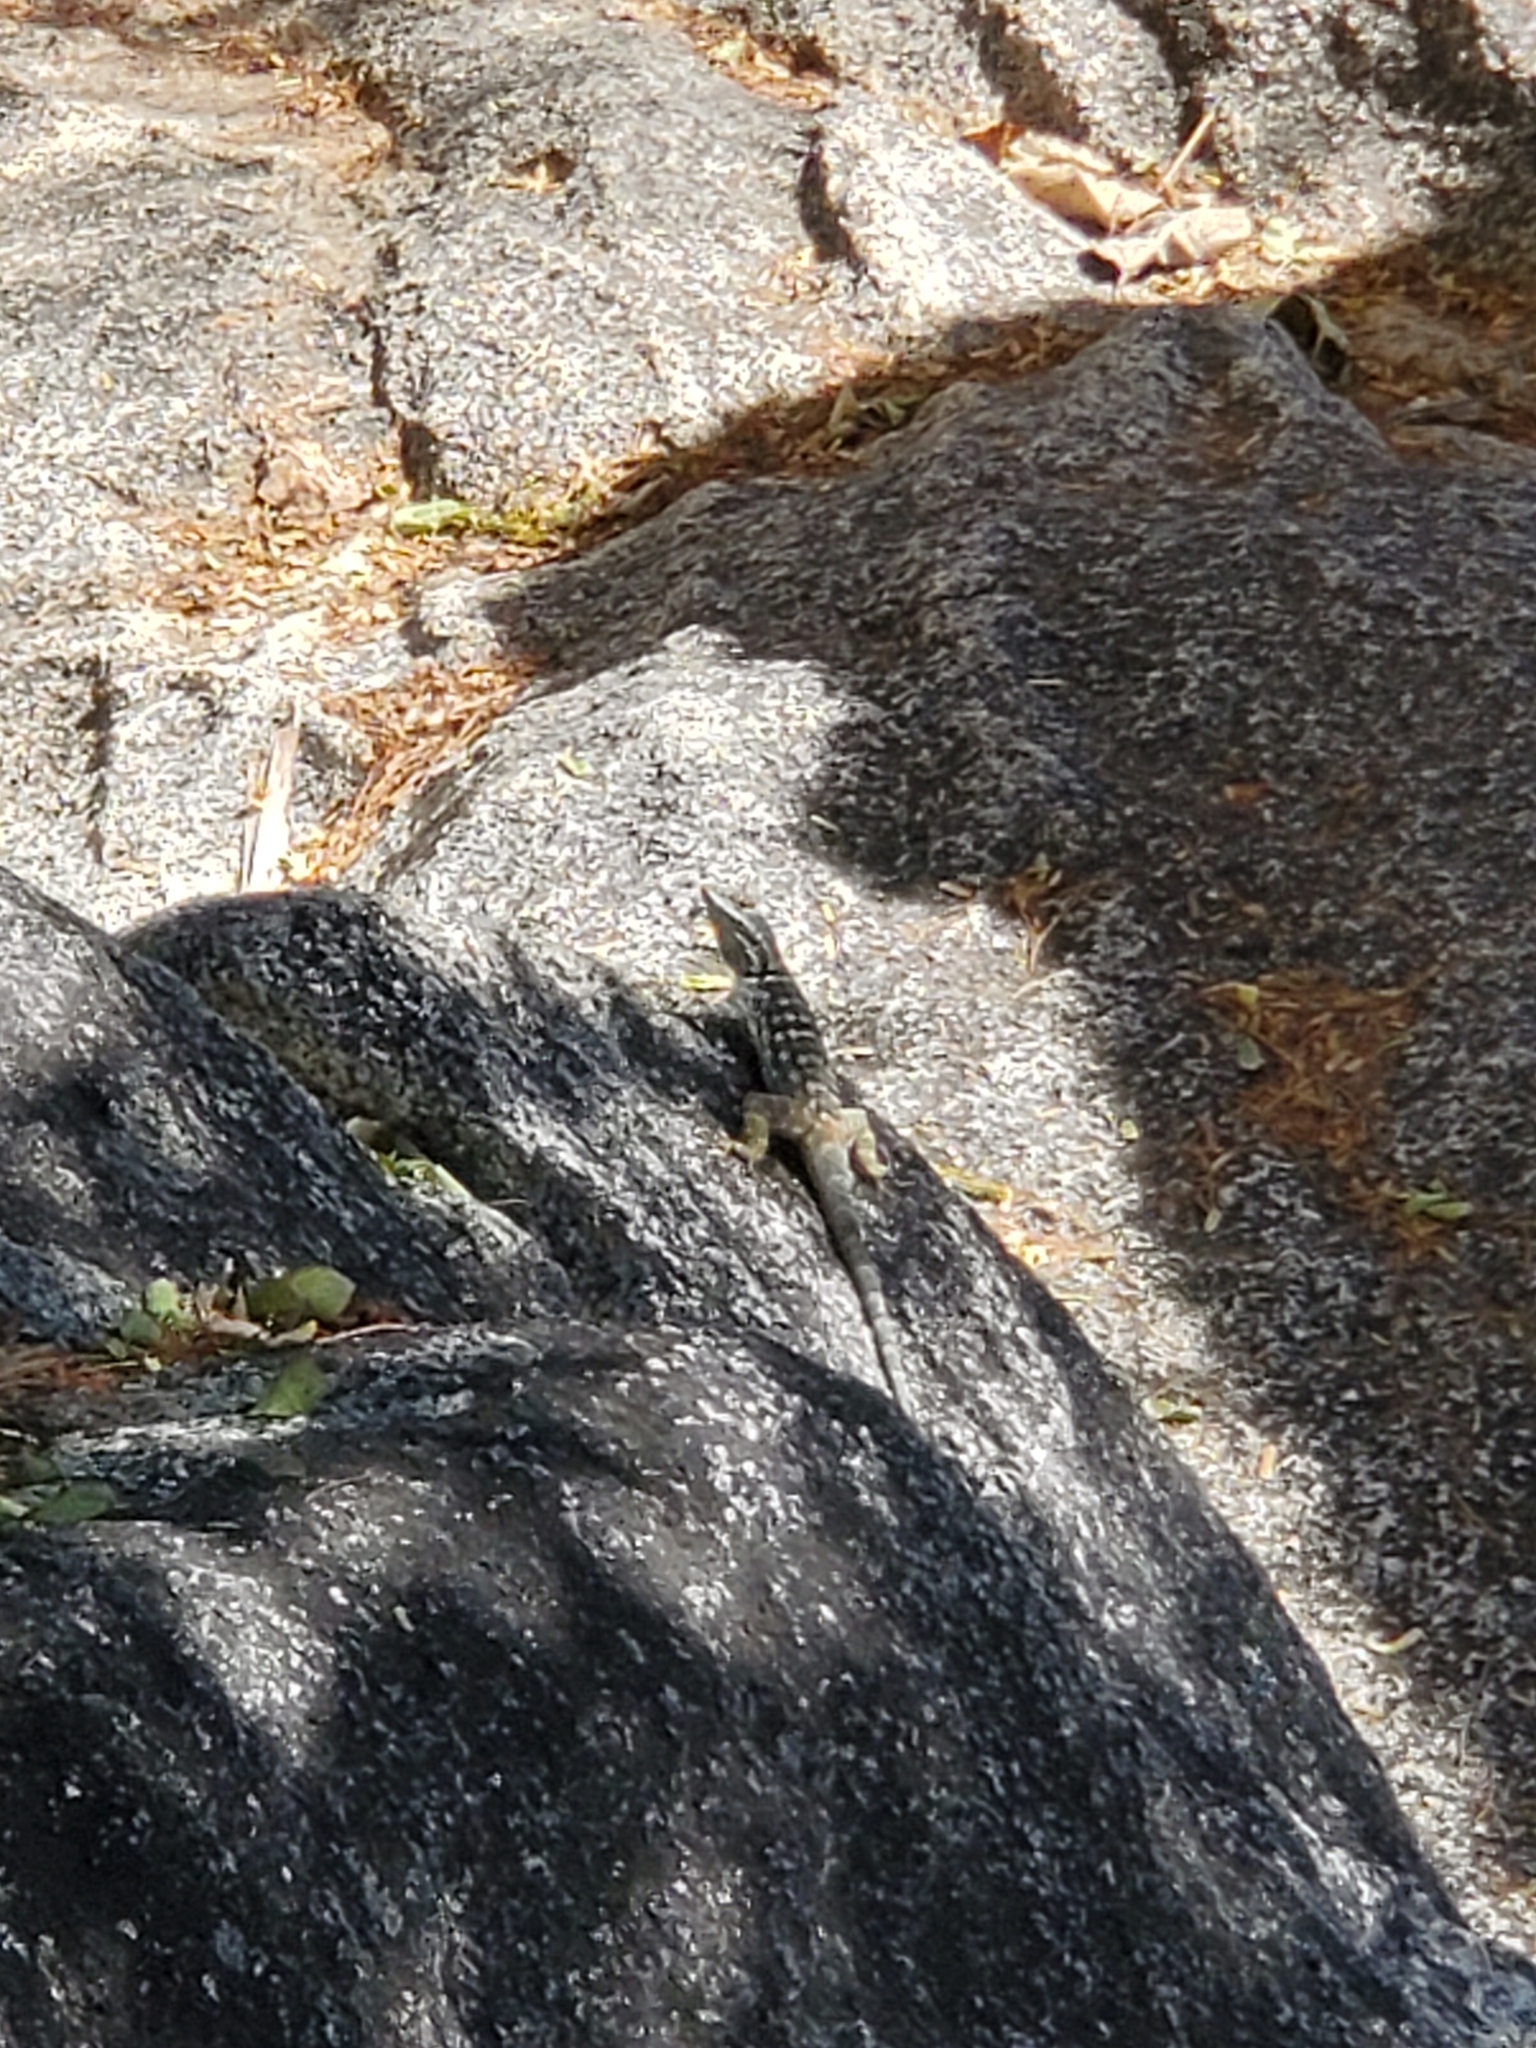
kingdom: Animalia
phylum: Chordata
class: Squamata
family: Phrynosomatidae
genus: Petrosaurus
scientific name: Petrosaurus thalassinus
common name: Baja california rock lizard
